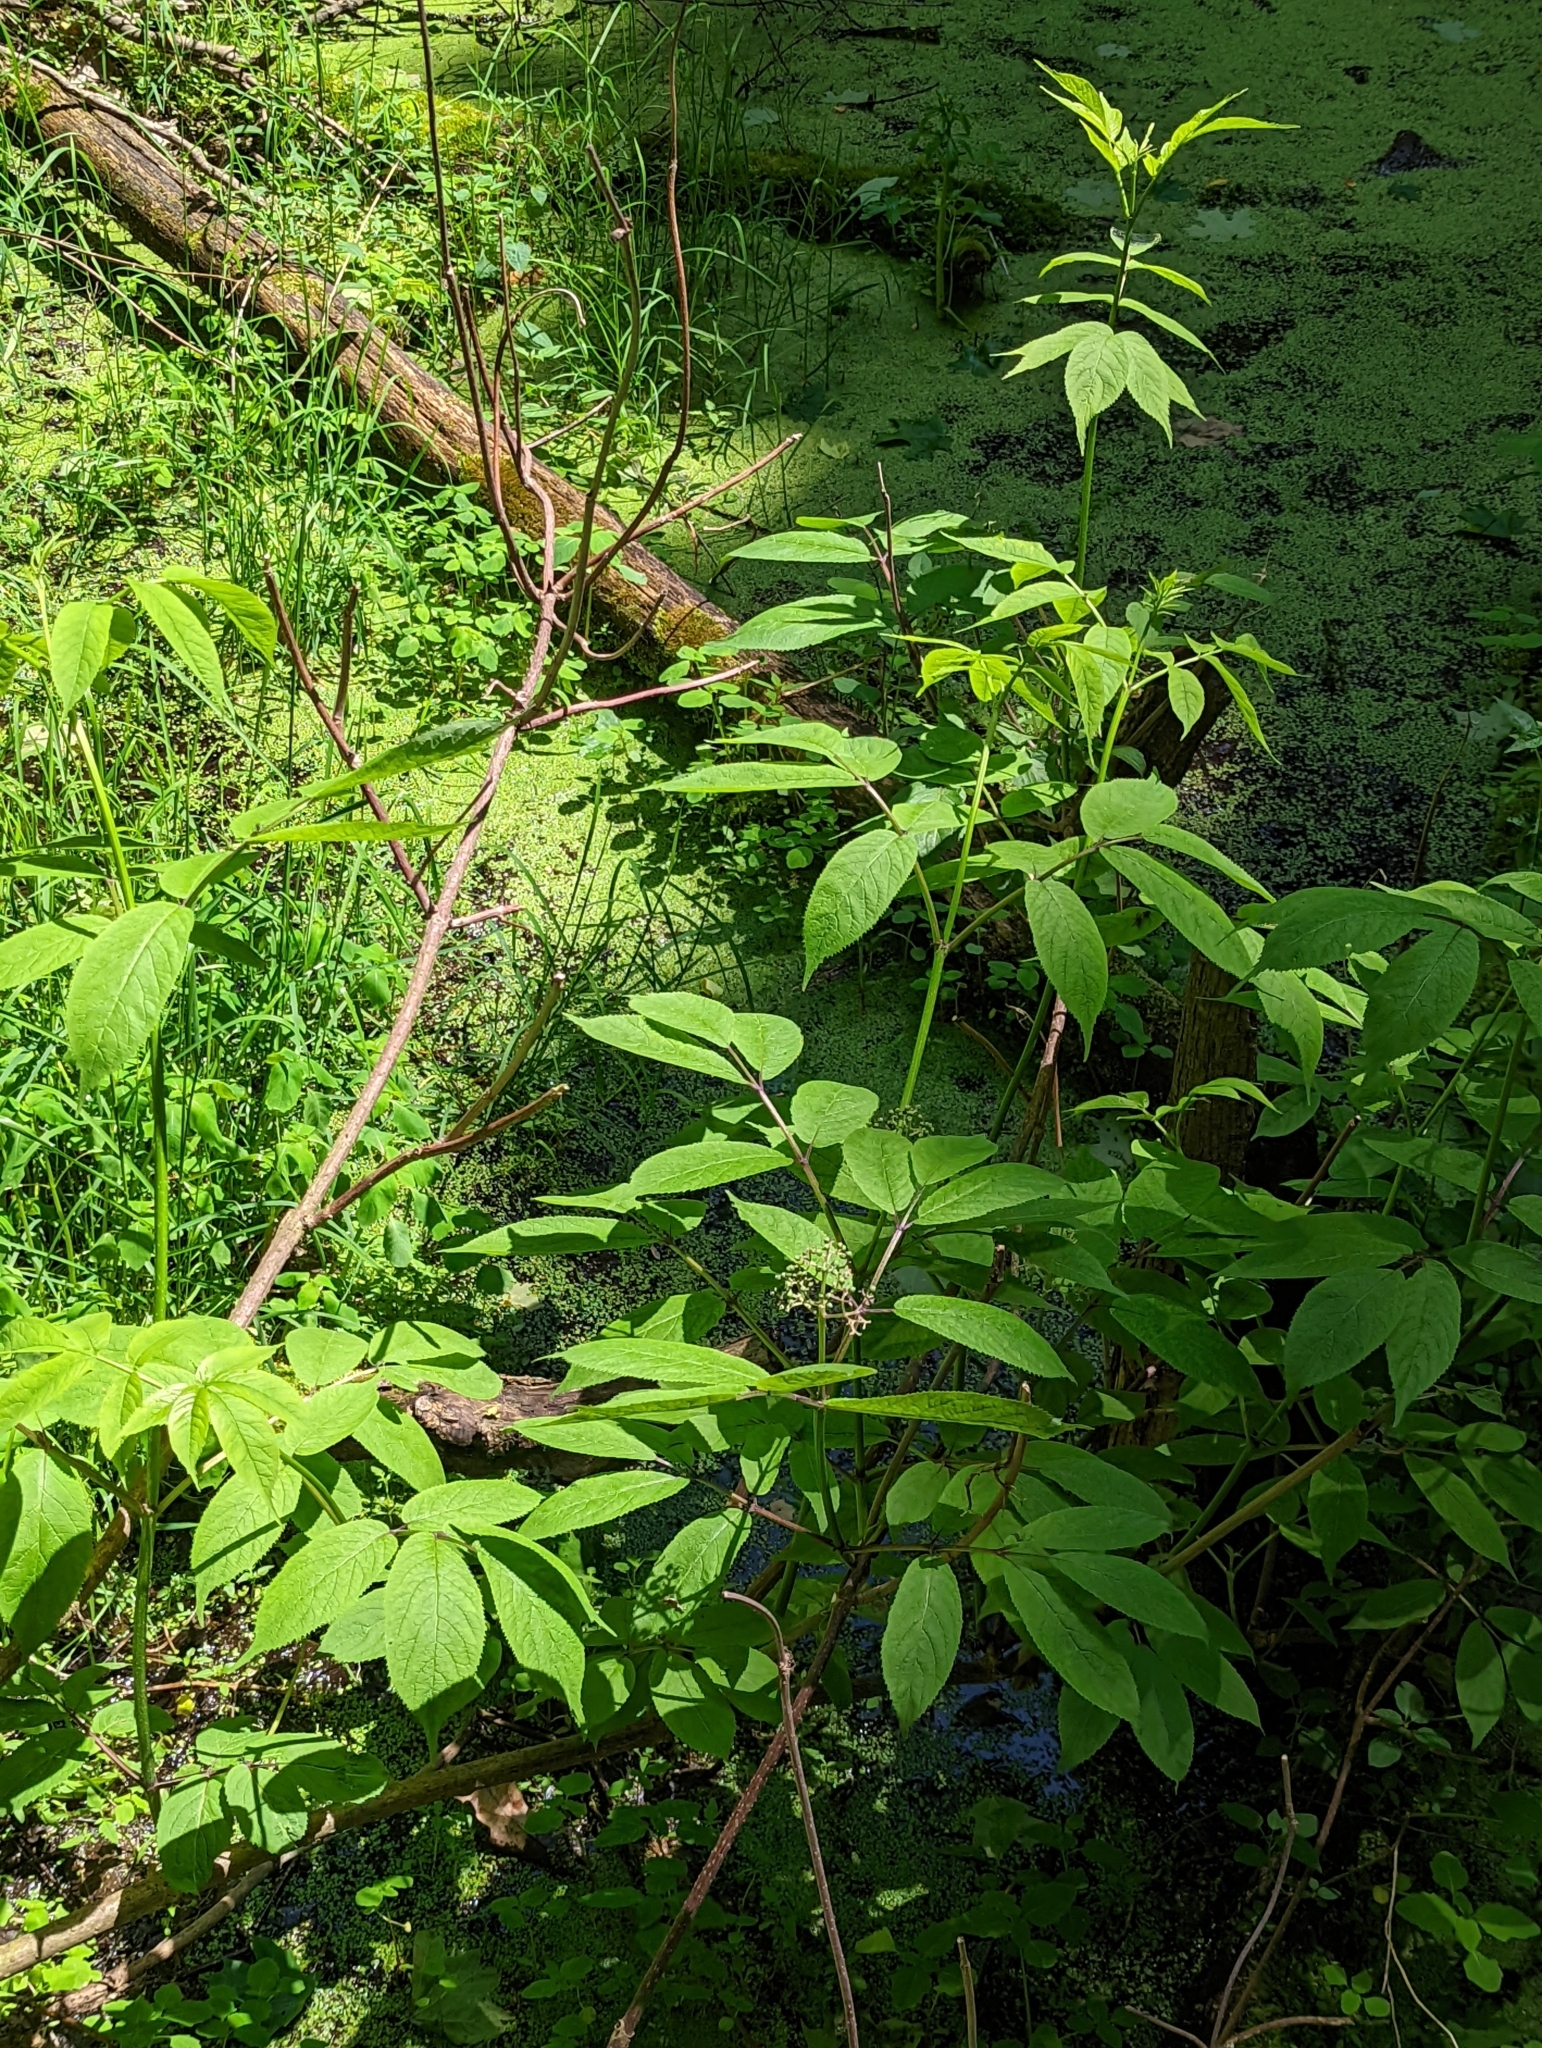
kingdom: Plantae
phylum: Tracheophyta
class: Magnoliopsida
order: Dipsacales
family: Viburnaceae
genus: Sambucus
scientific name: Sambucus racemosa
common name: Red-berried elder
